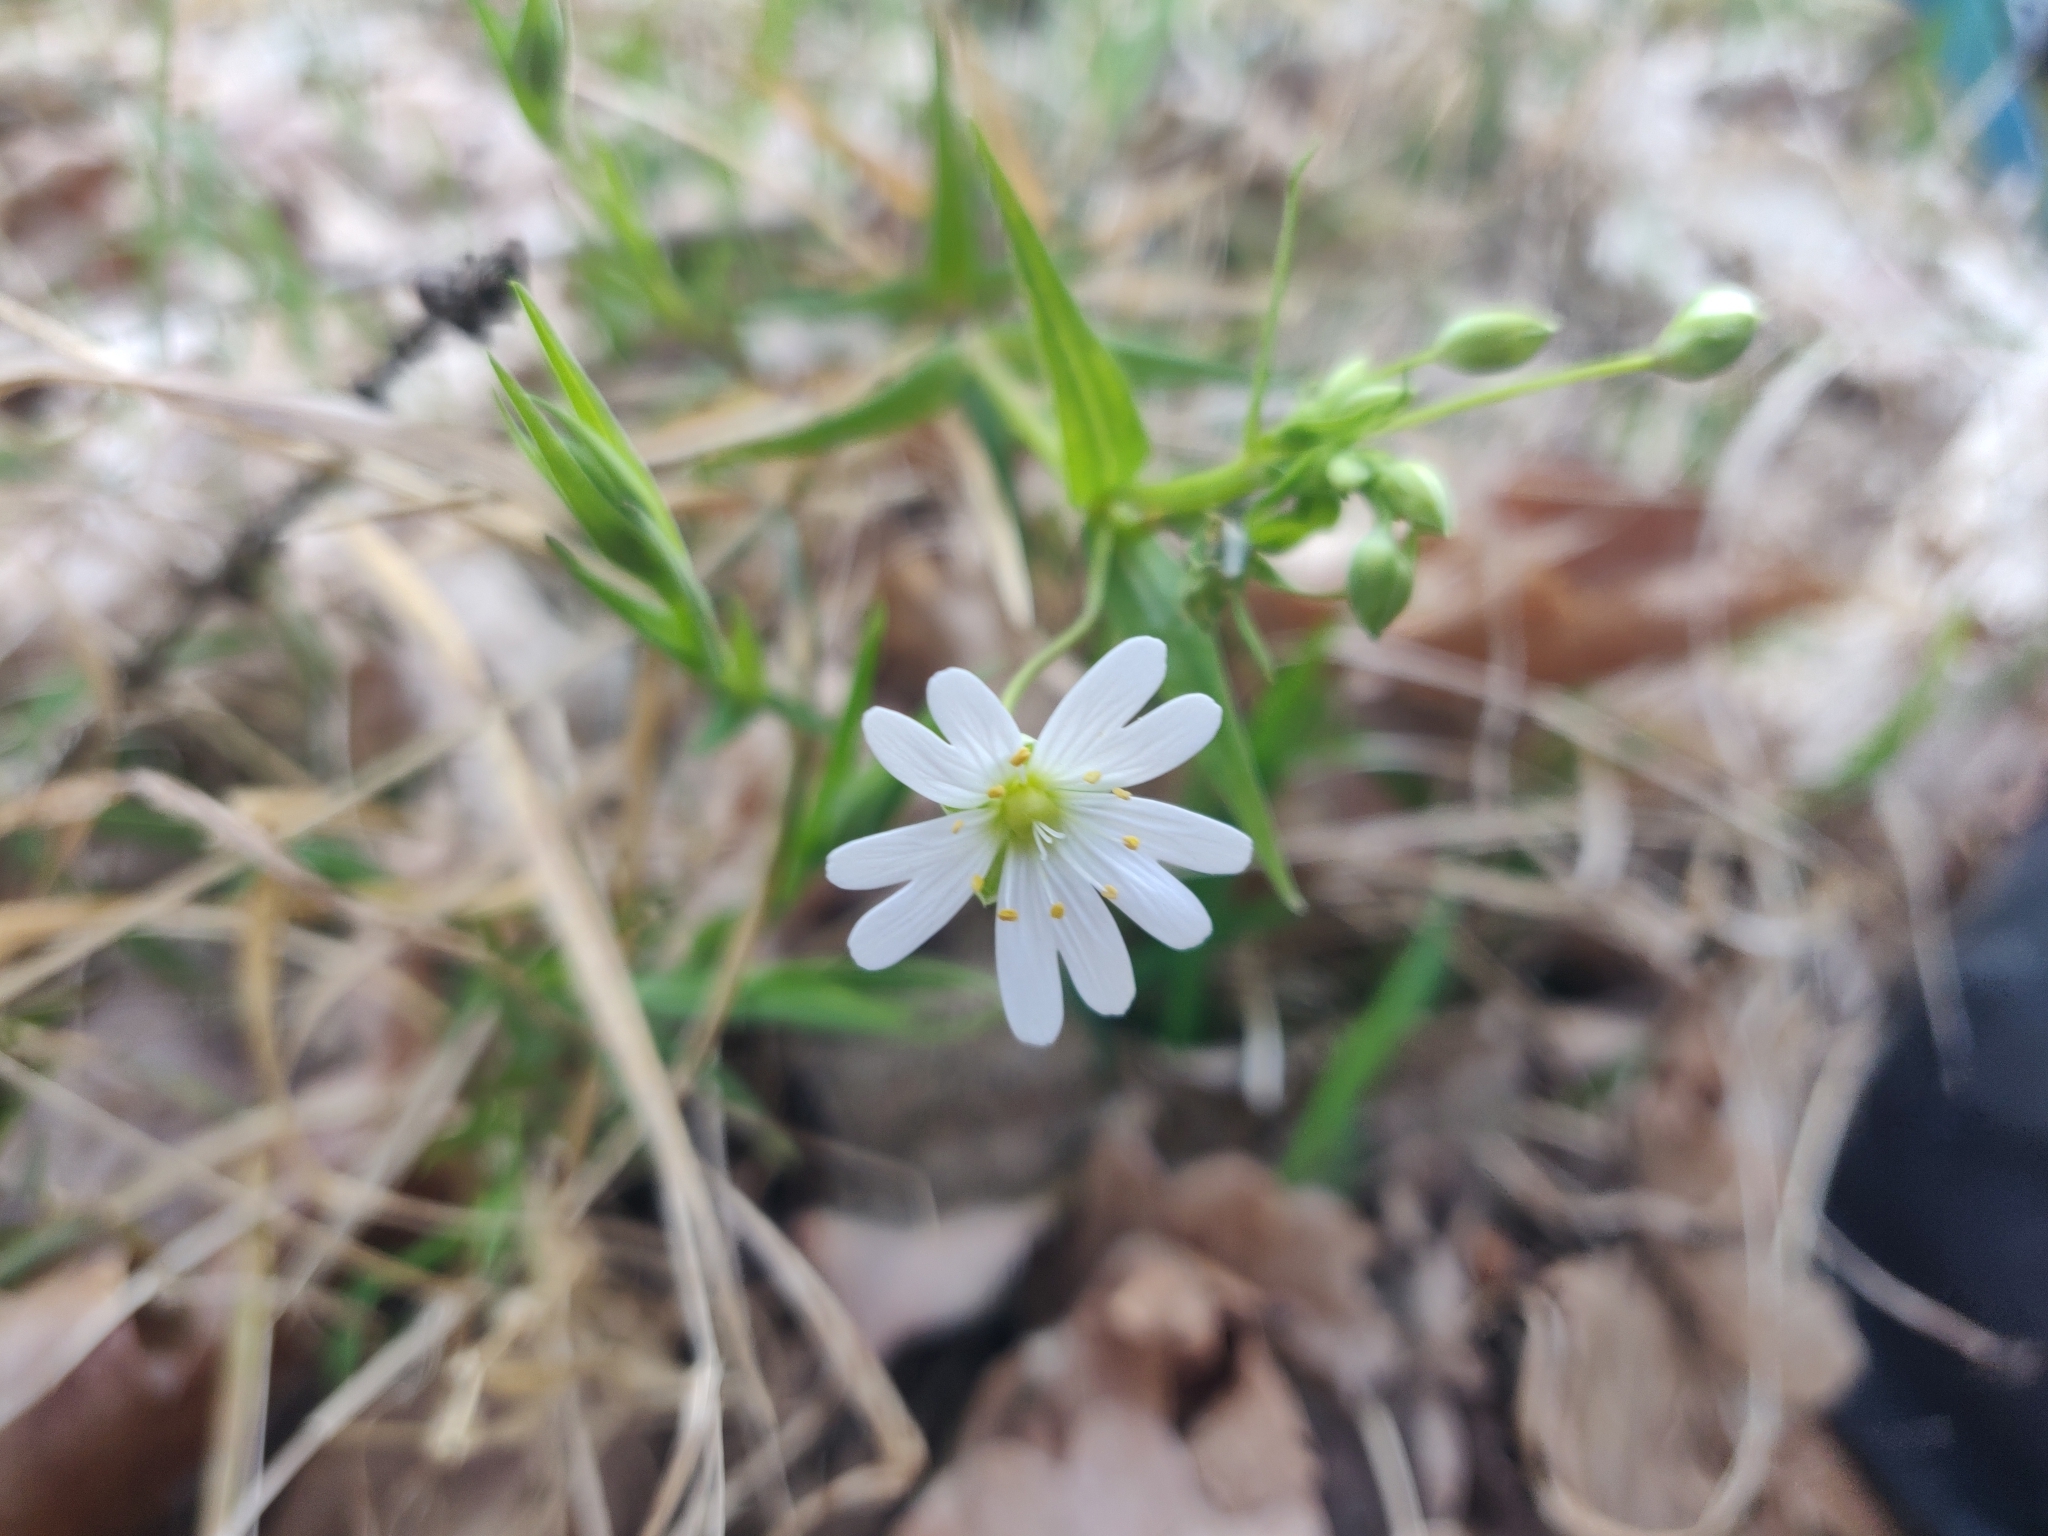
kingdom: Plantae
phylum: Tracheophyta
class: Magnoliopsida
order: Caryophyllales
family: Caryophyllaceae
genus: Rabelera
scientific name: Rabelera holostea
